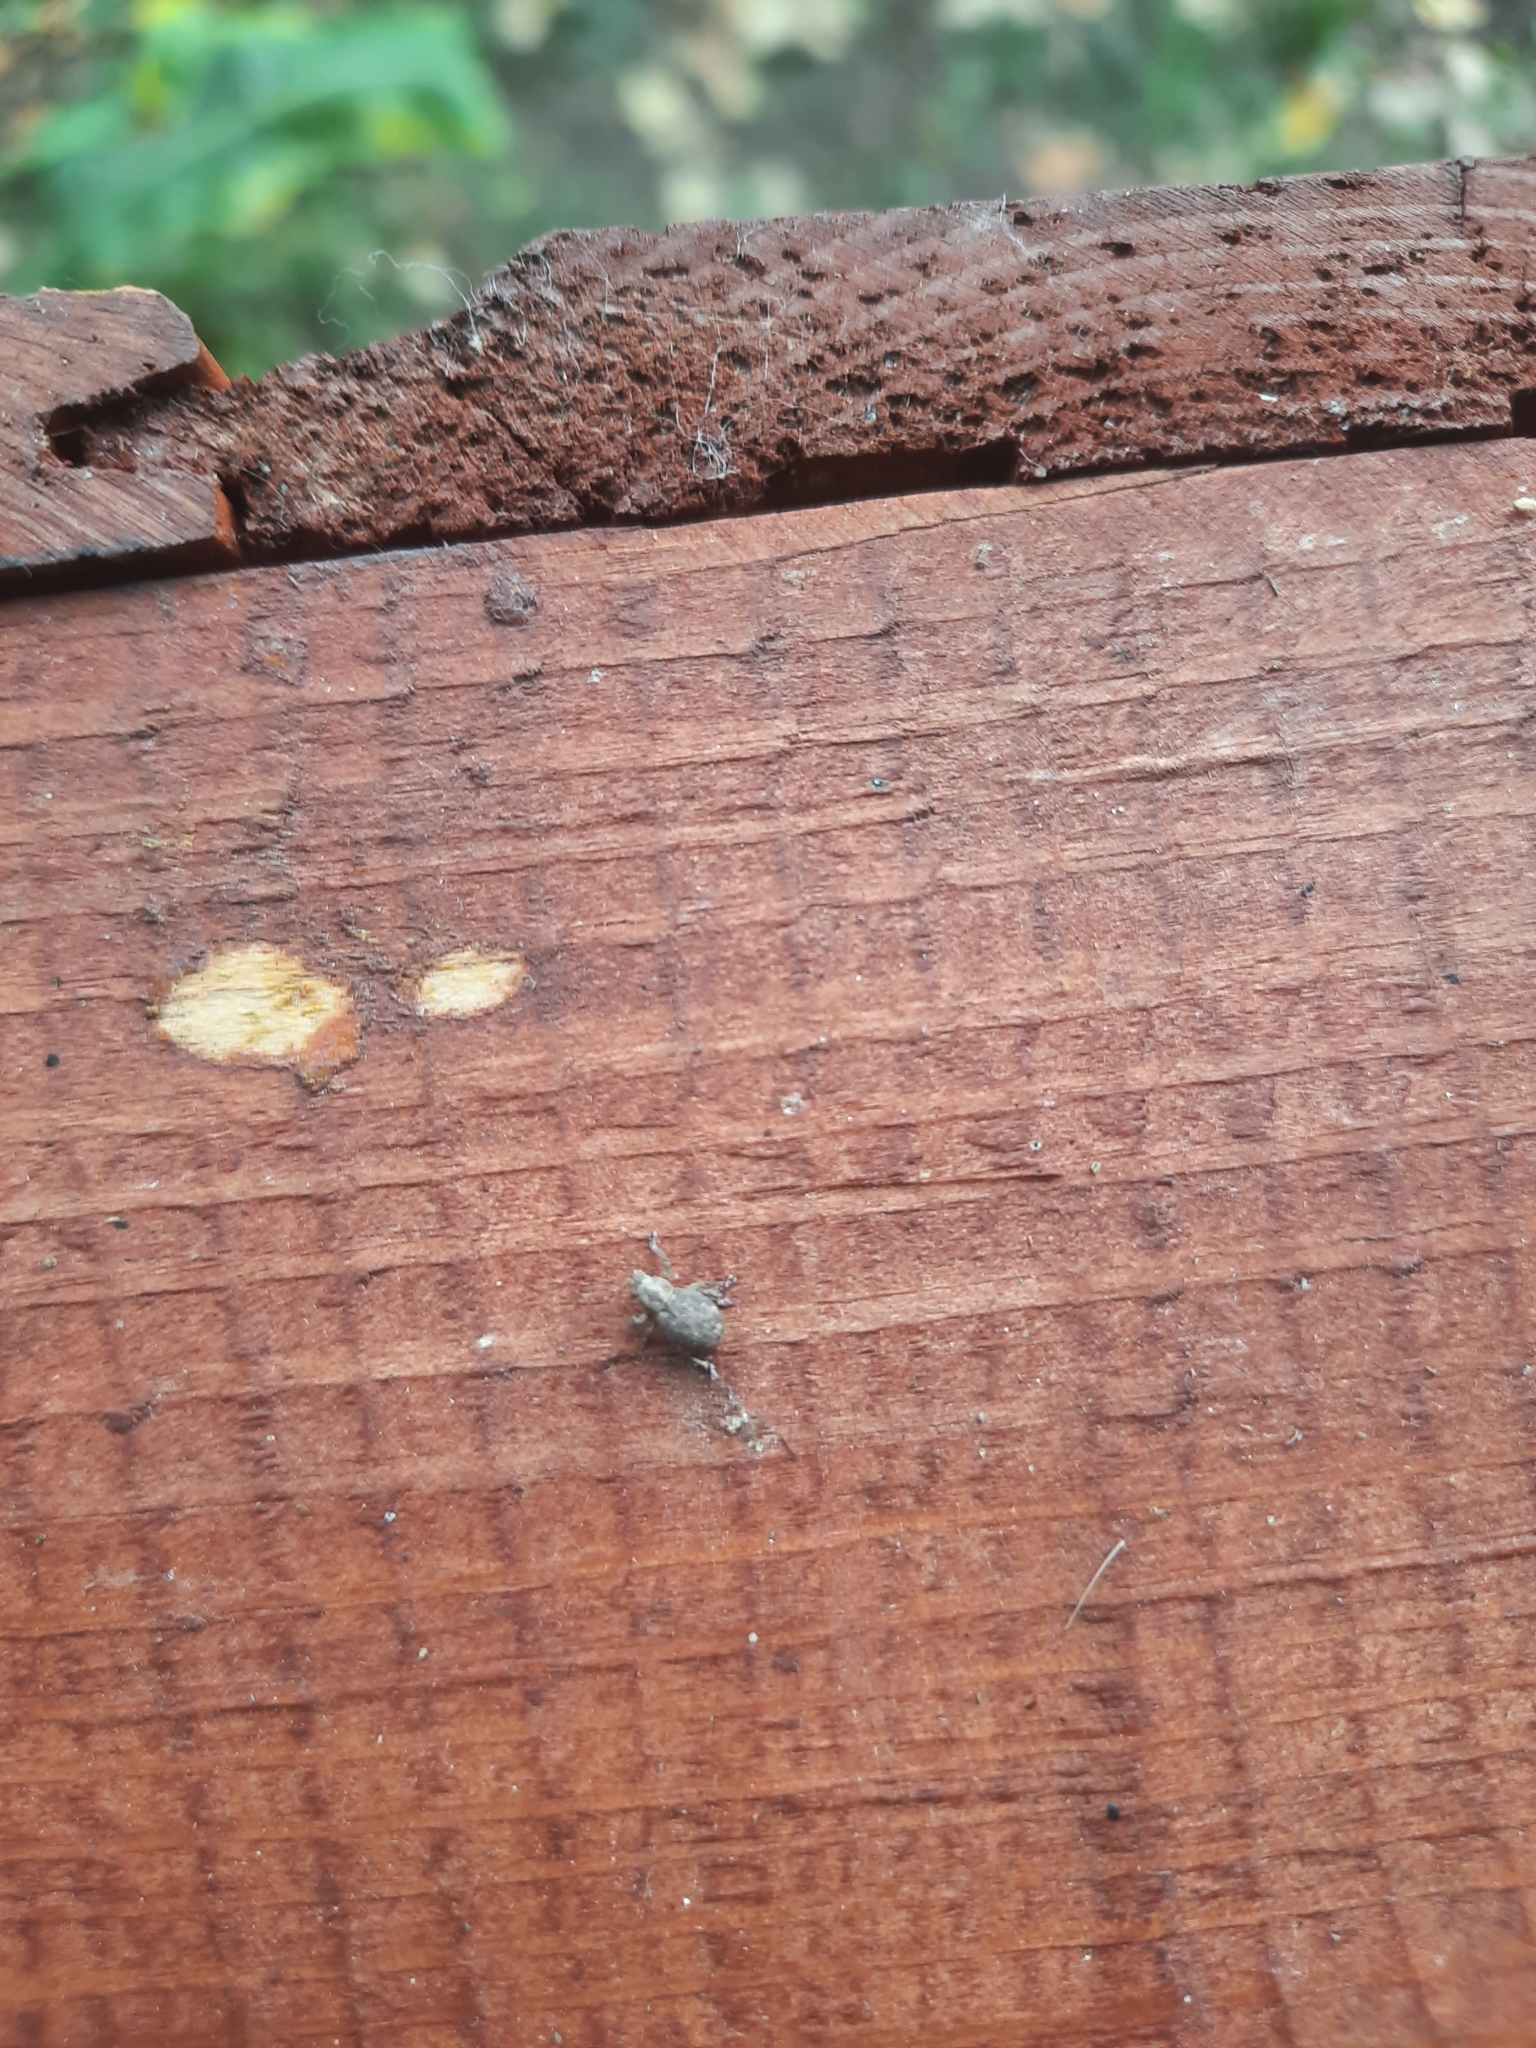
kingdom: Animalia
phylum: Arthropoda
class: Insecta
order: Coleoptera
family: Curculionidae
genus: Strophosoma
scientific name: Strophosoma capitatum
